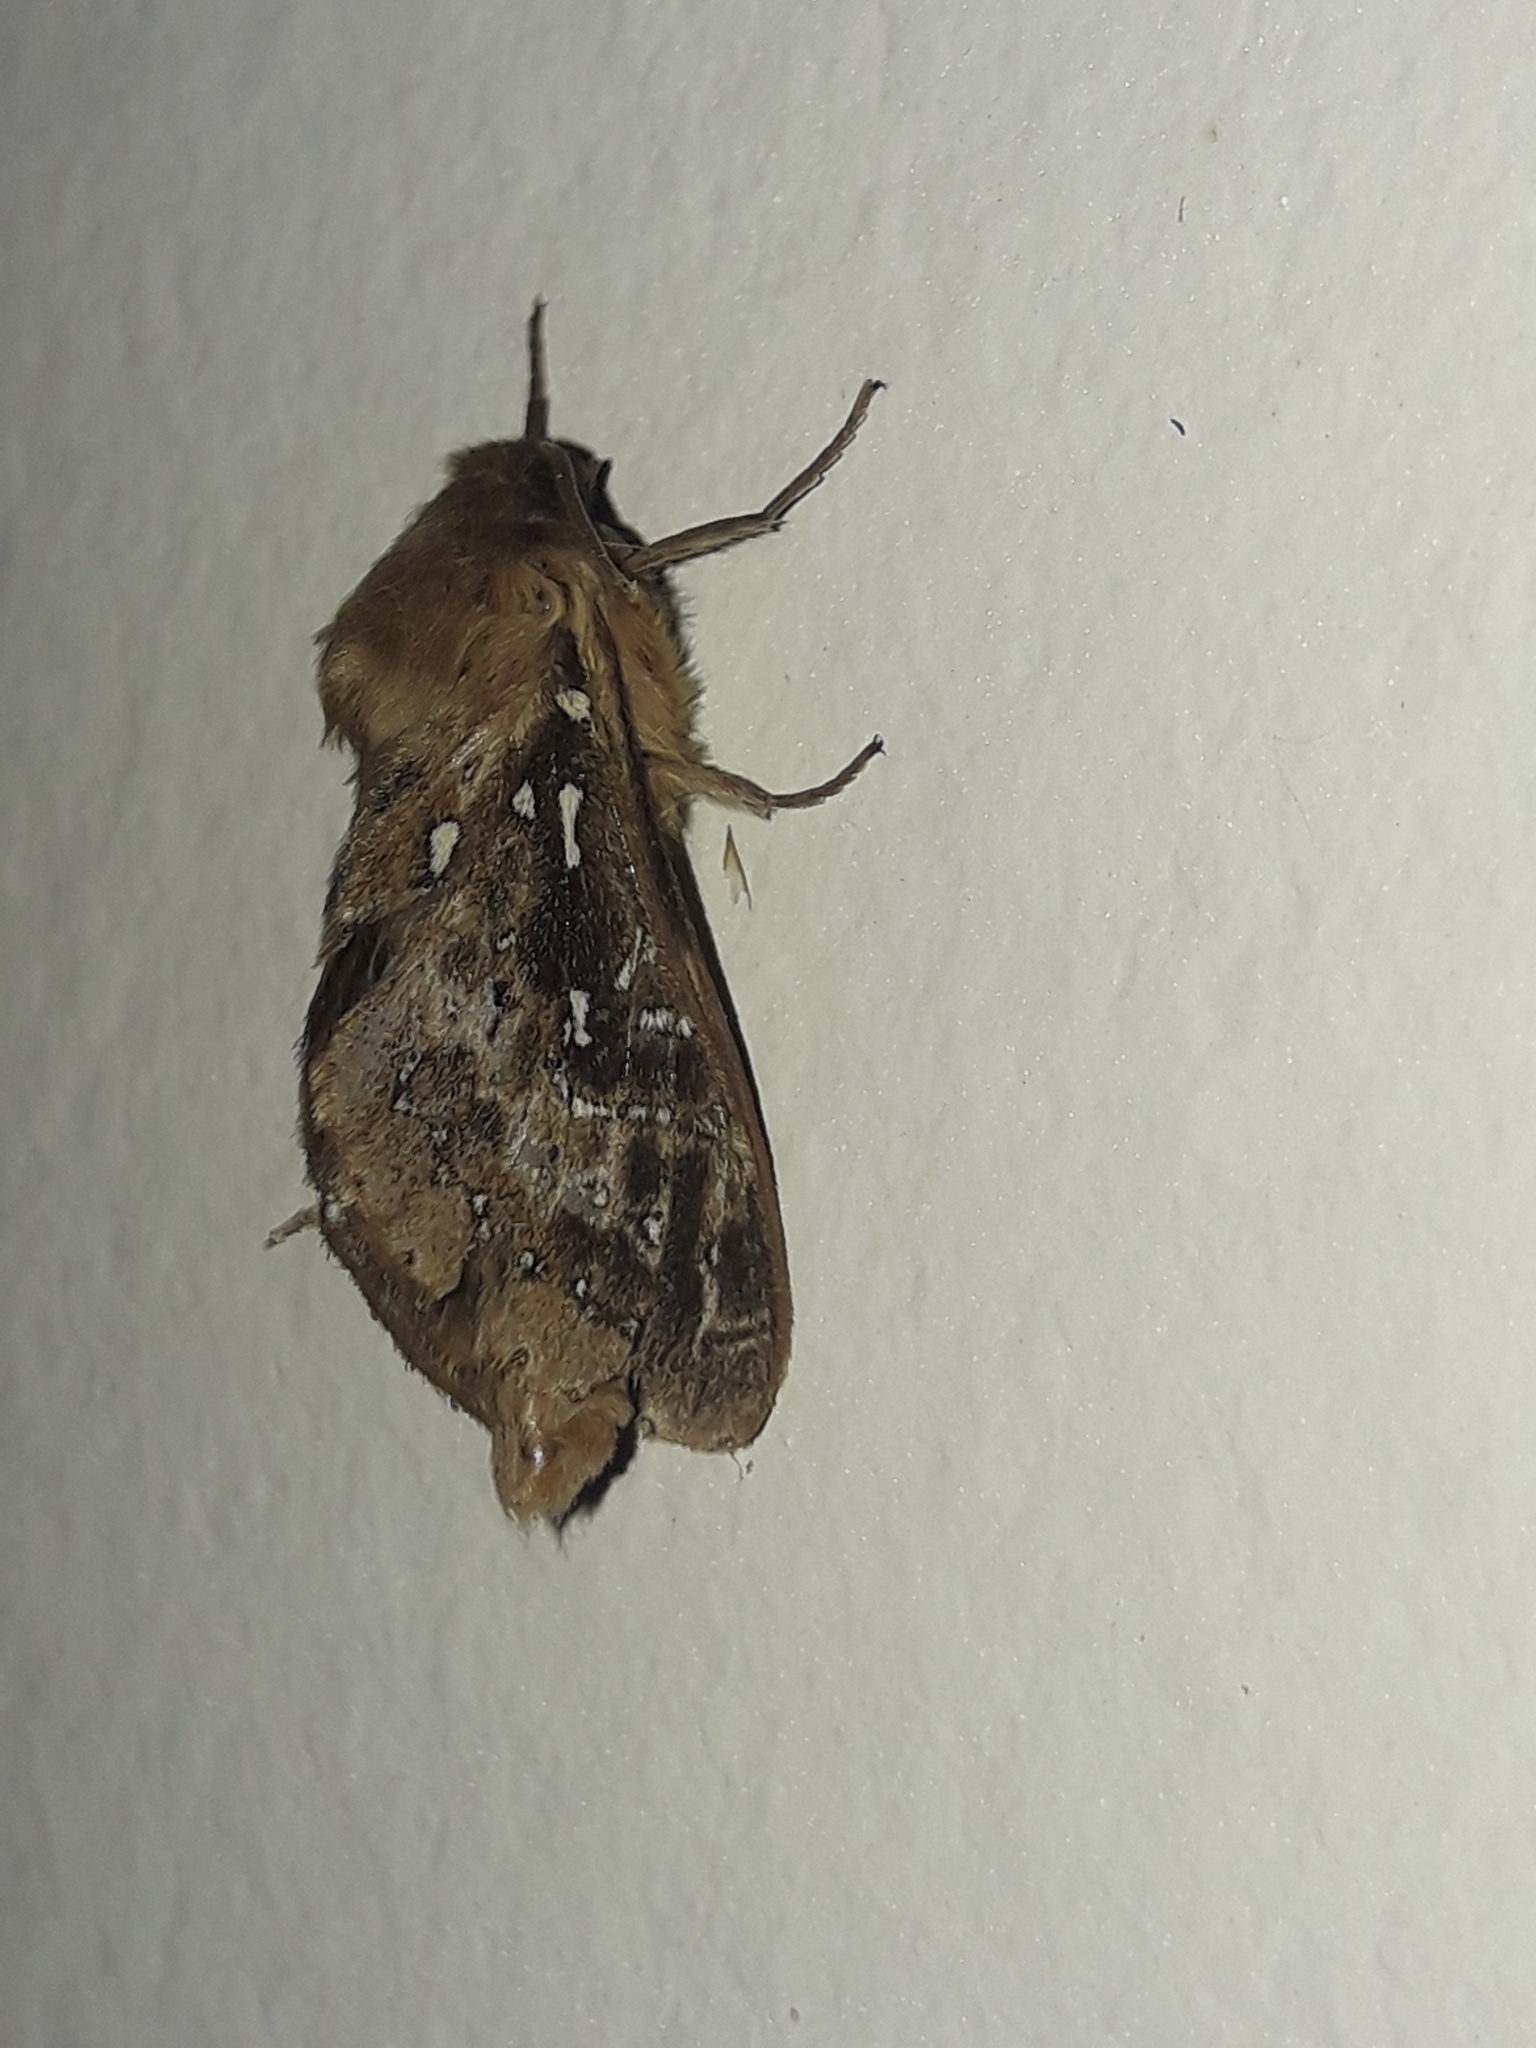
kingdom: Animalia
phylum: Arthropoda
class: Insecta
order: Lepidoptera
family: Hepialidae
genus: Wiseana
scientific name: Wiseana cervinata
